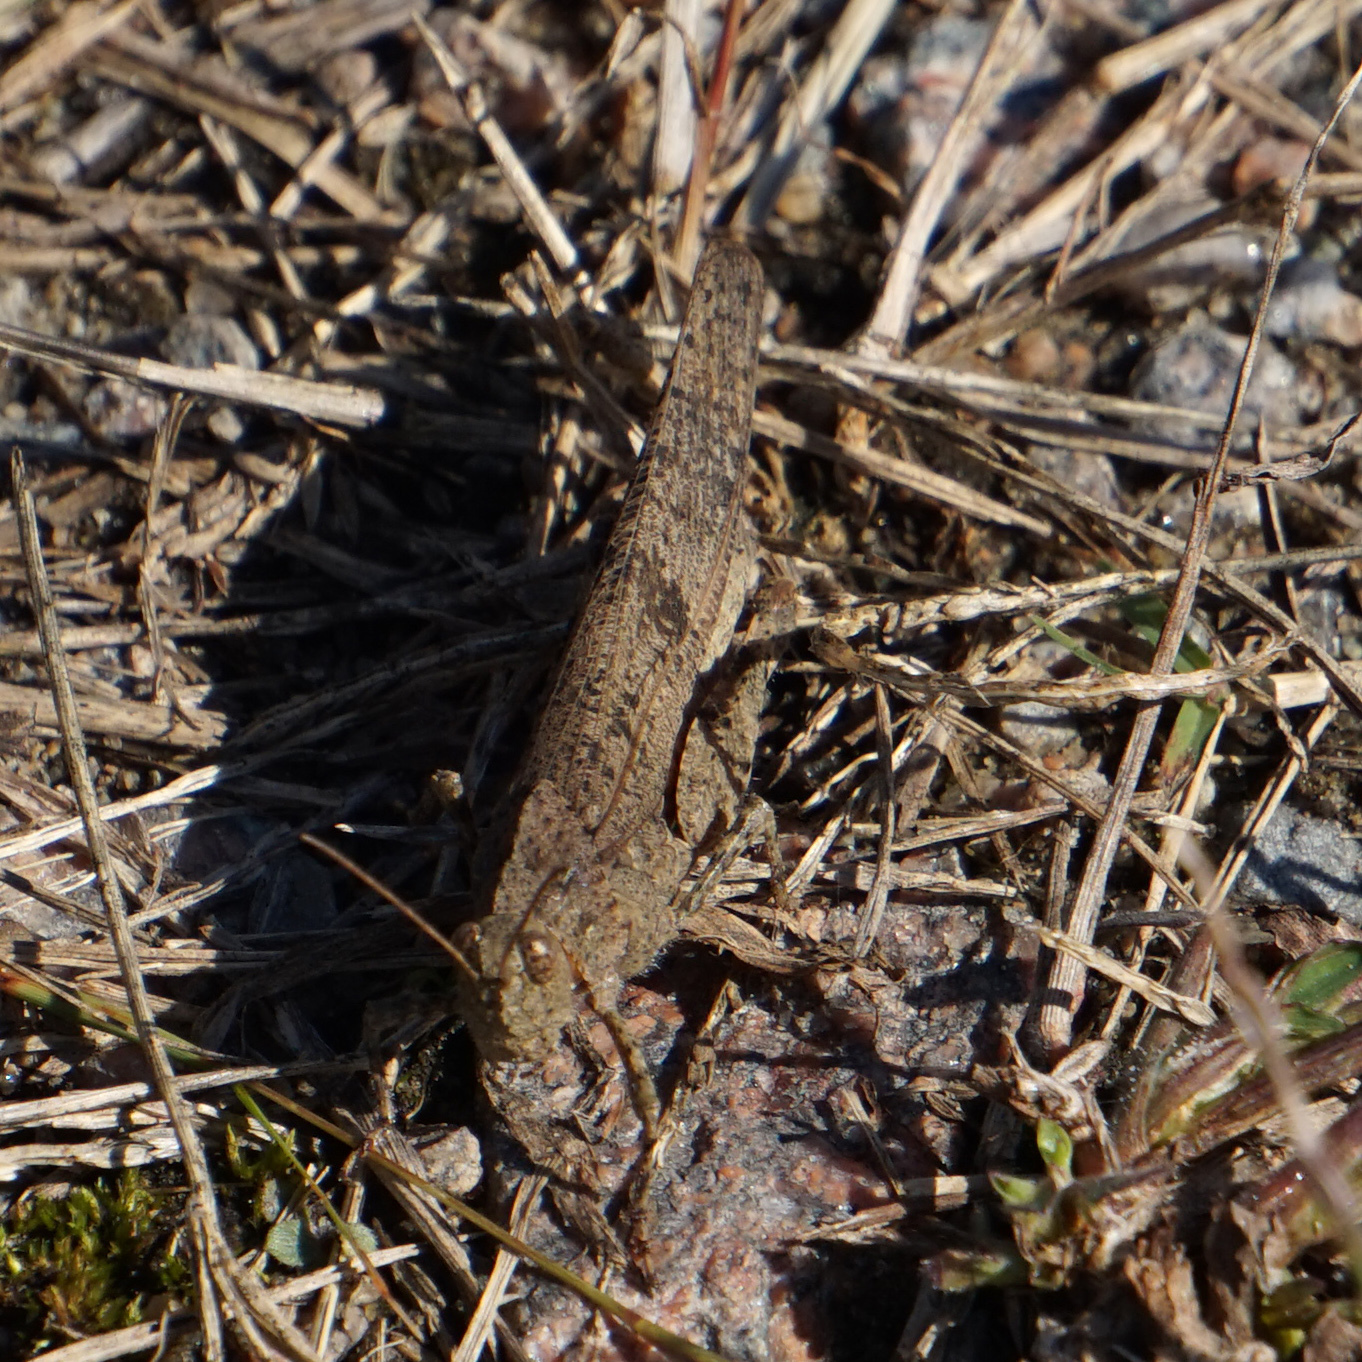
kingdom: Animalia
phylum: Arthropoda
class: Insecta
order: Orthoptera
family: Acrididae
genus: Dissosteira
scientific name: Dissosteira carolina
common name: Carolina grasshopper
